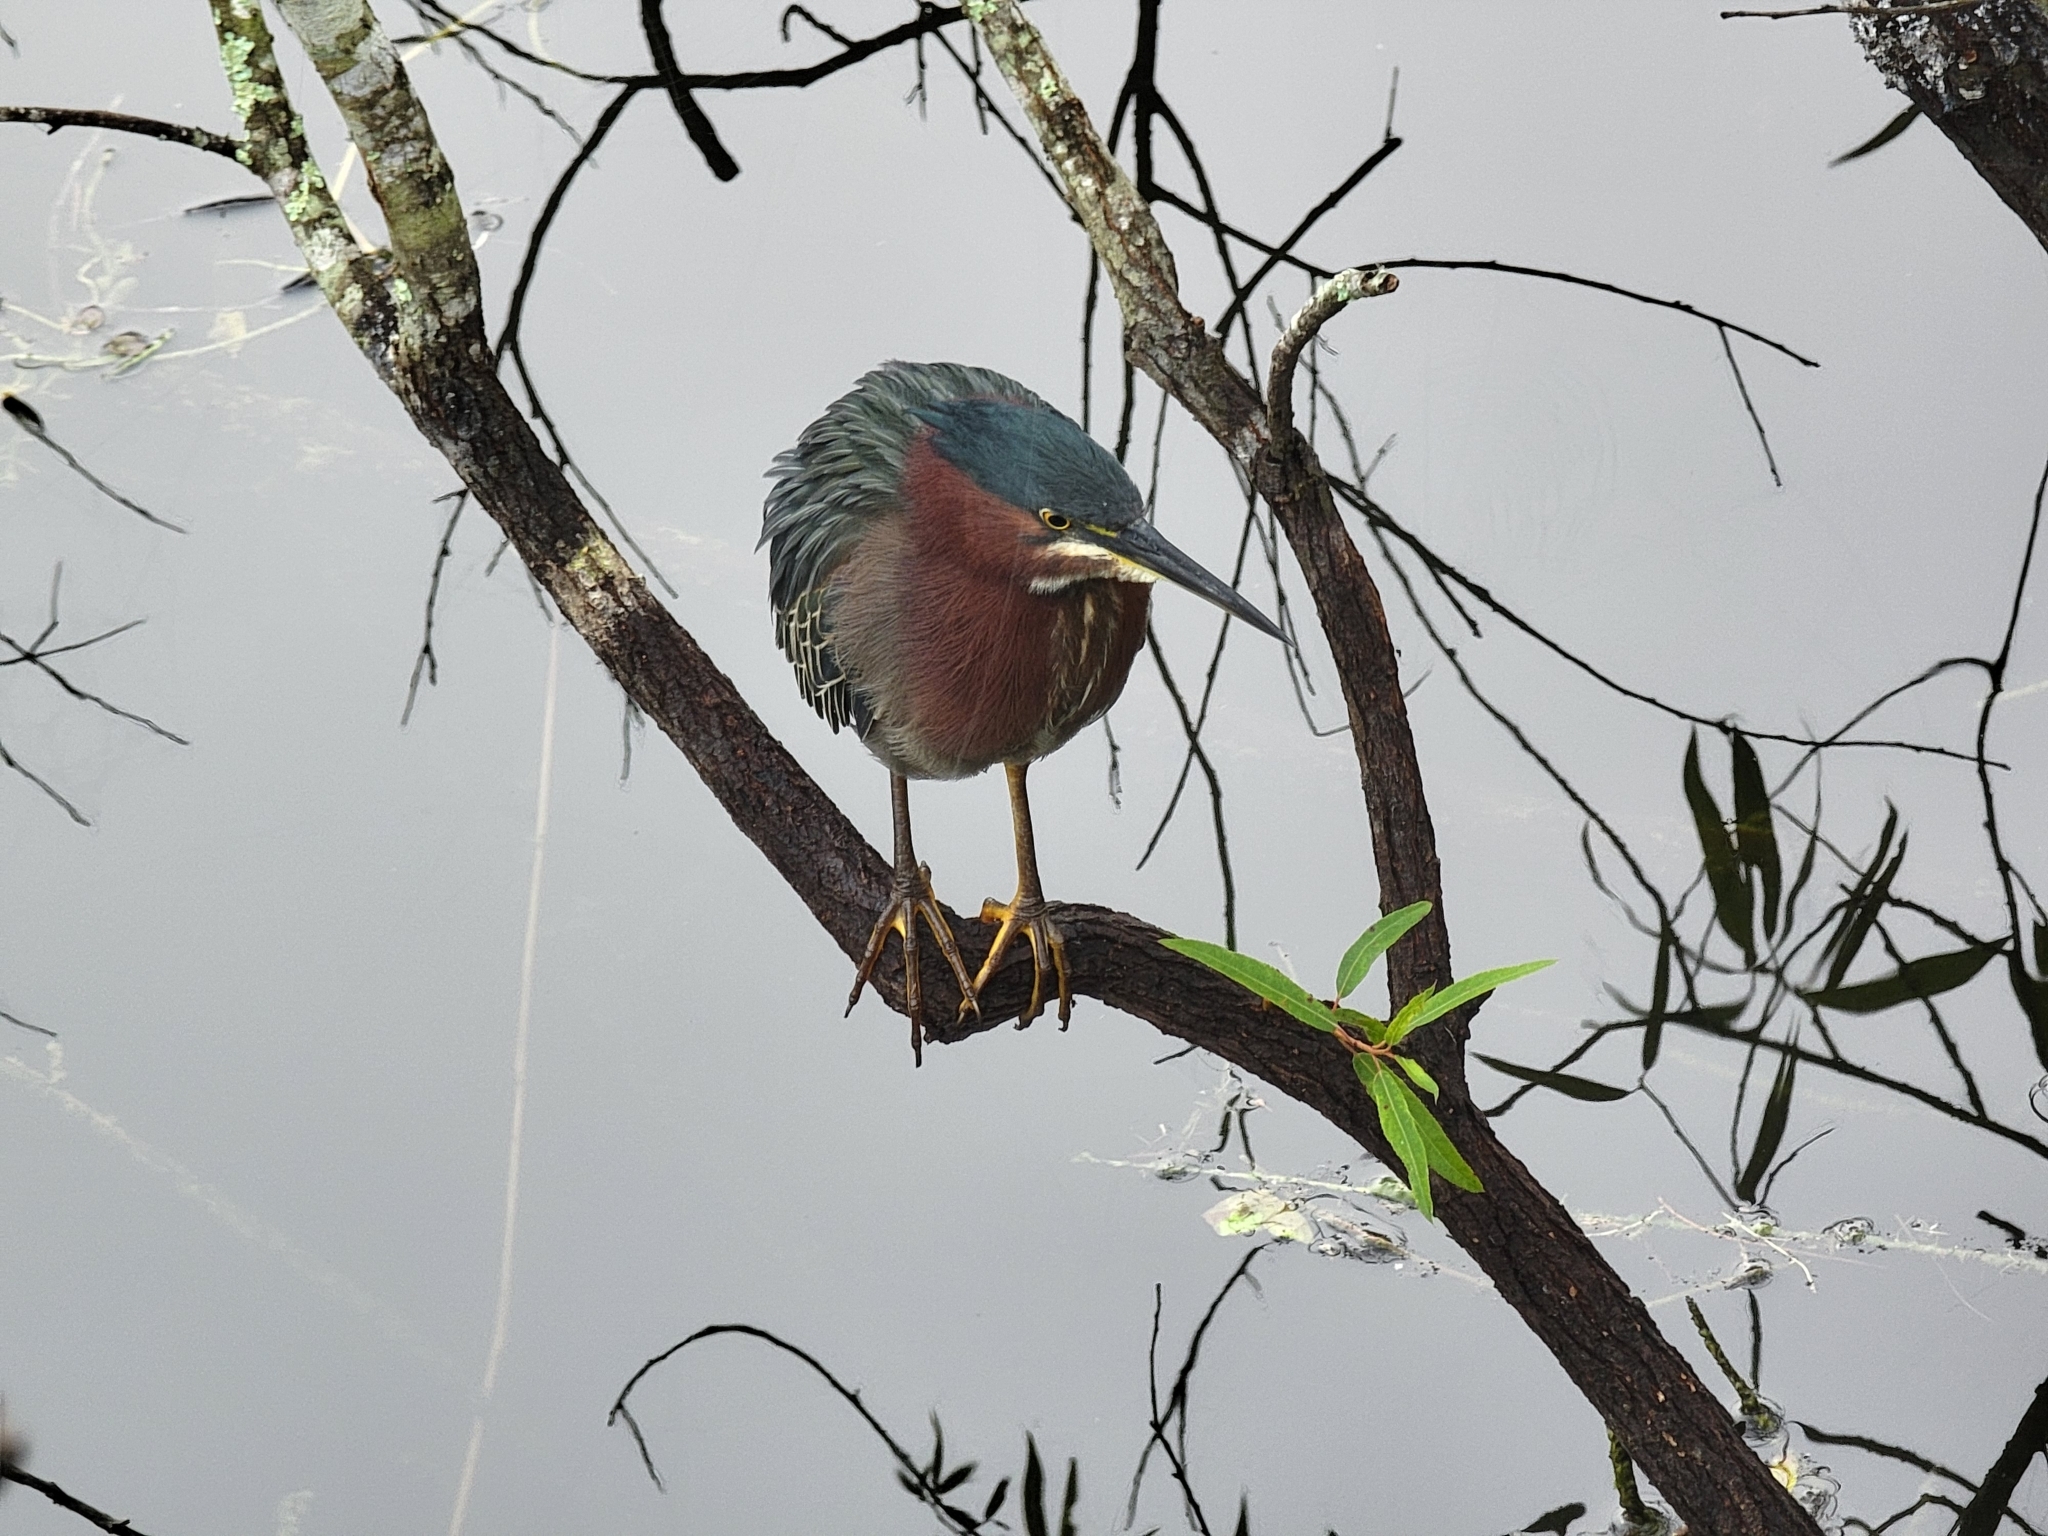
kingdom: Animalia
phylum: Chordata
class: Aves
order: Pelecaniformes
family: Ardeidae
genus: Butorides
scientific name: Butorides virescens
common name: Green heron
